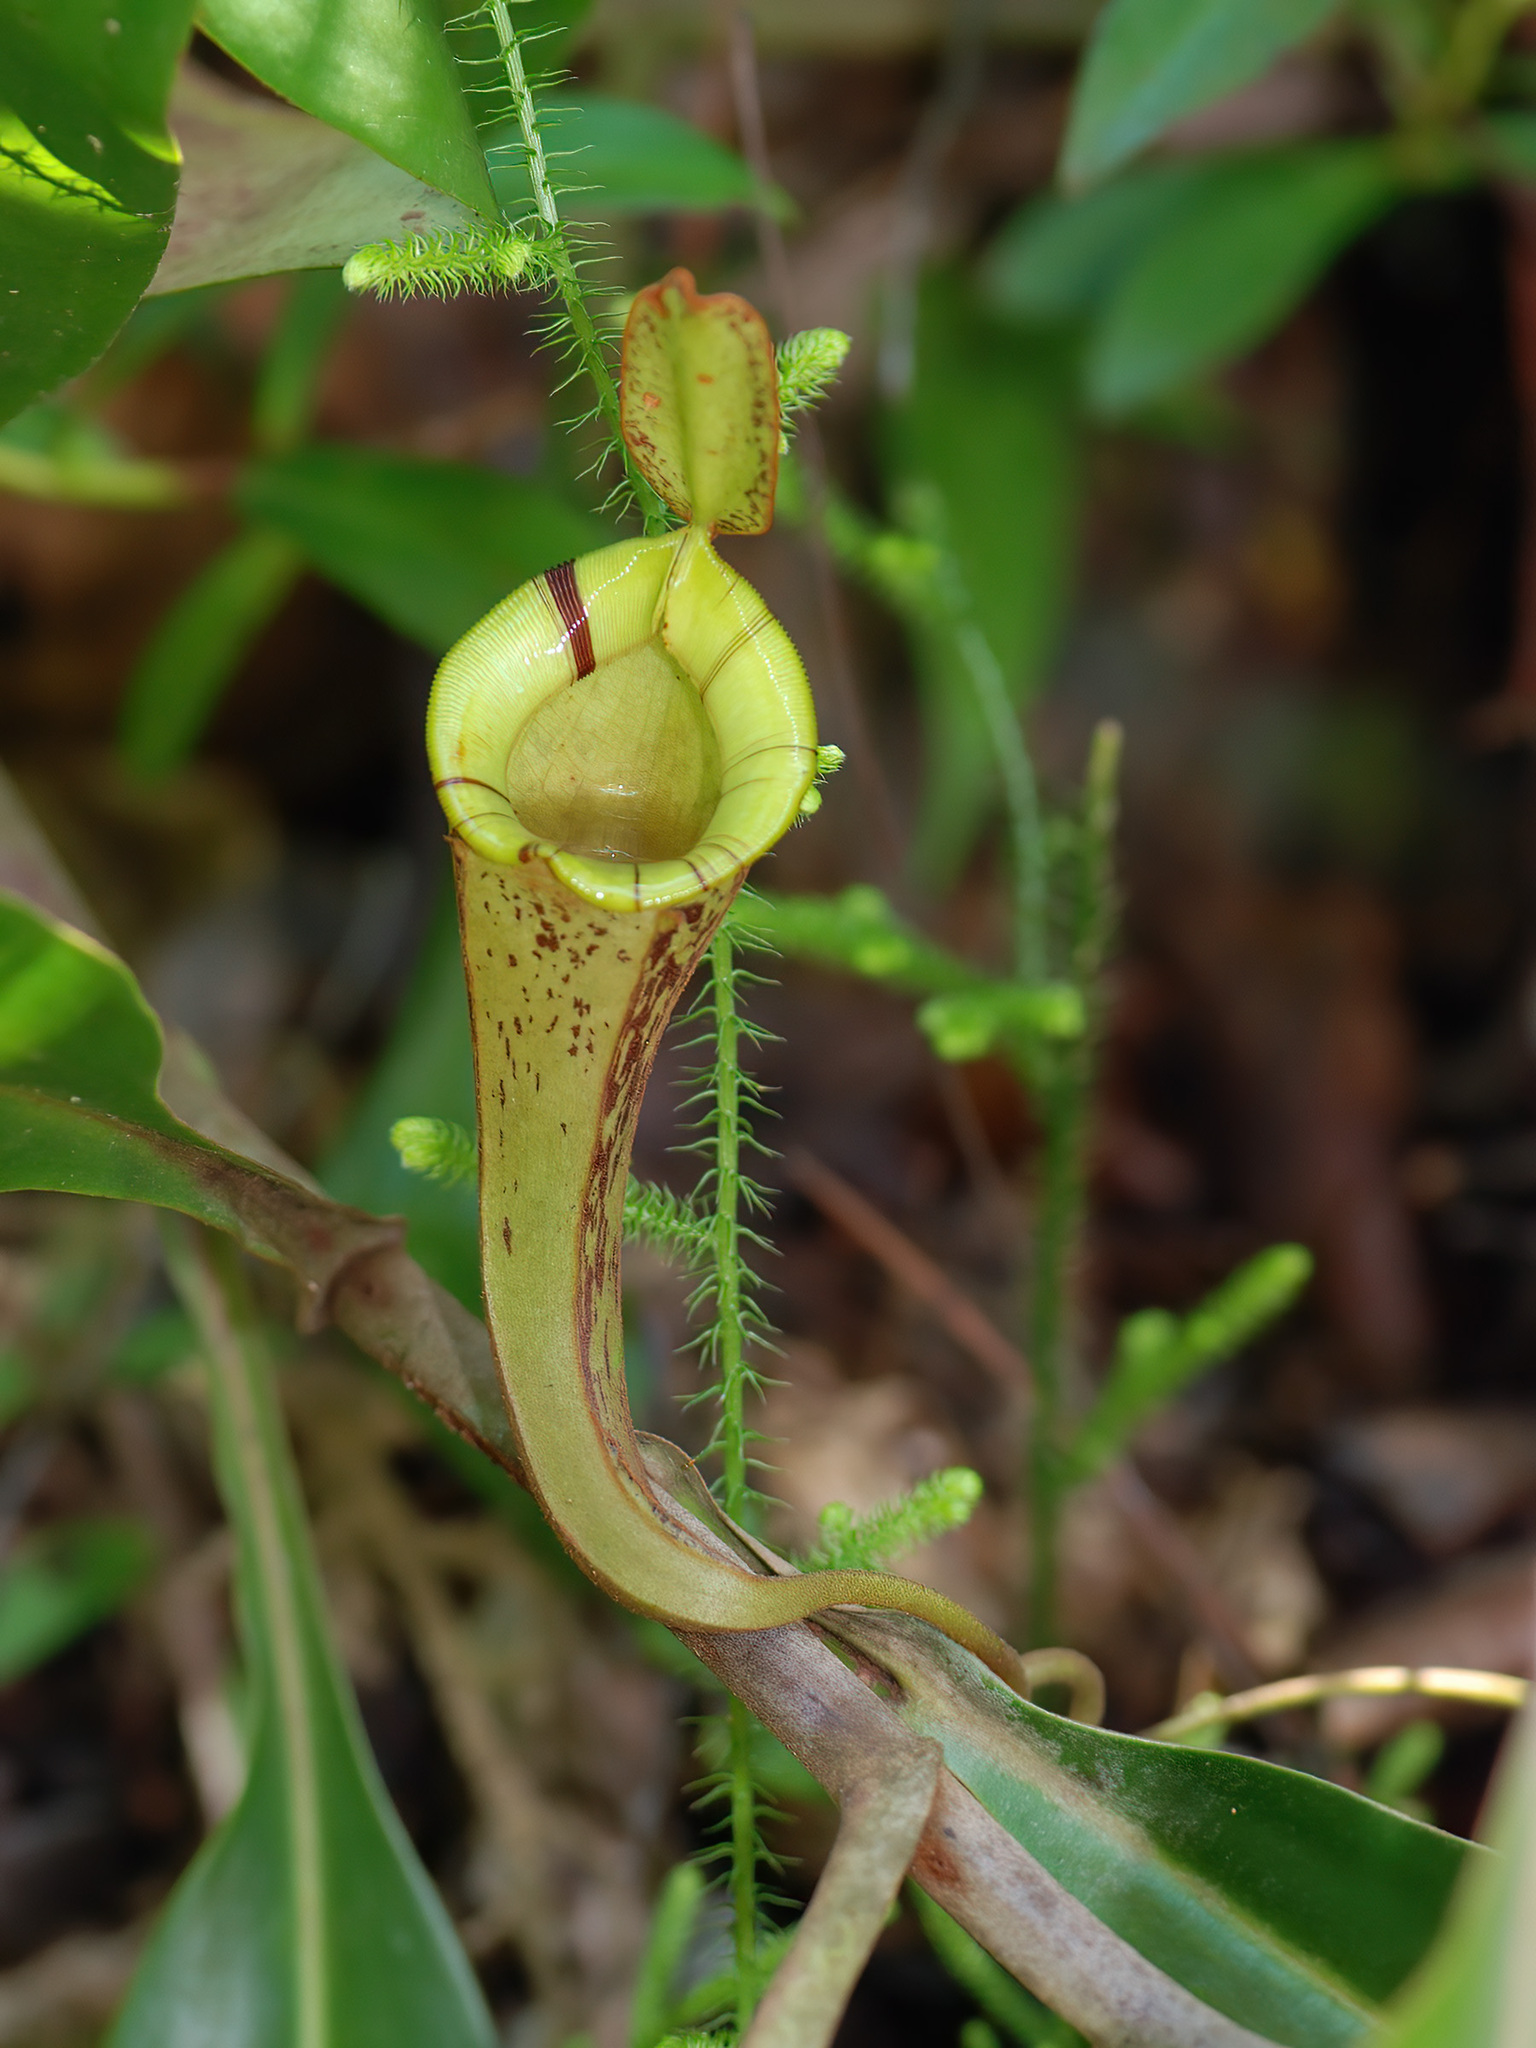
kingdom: Plantae
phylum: Tracheophyta
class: Magnoliopsida
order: Caryophyllales
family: Nepenthaceae
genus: Nepenthes
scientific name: Nepenthes hookeriana
